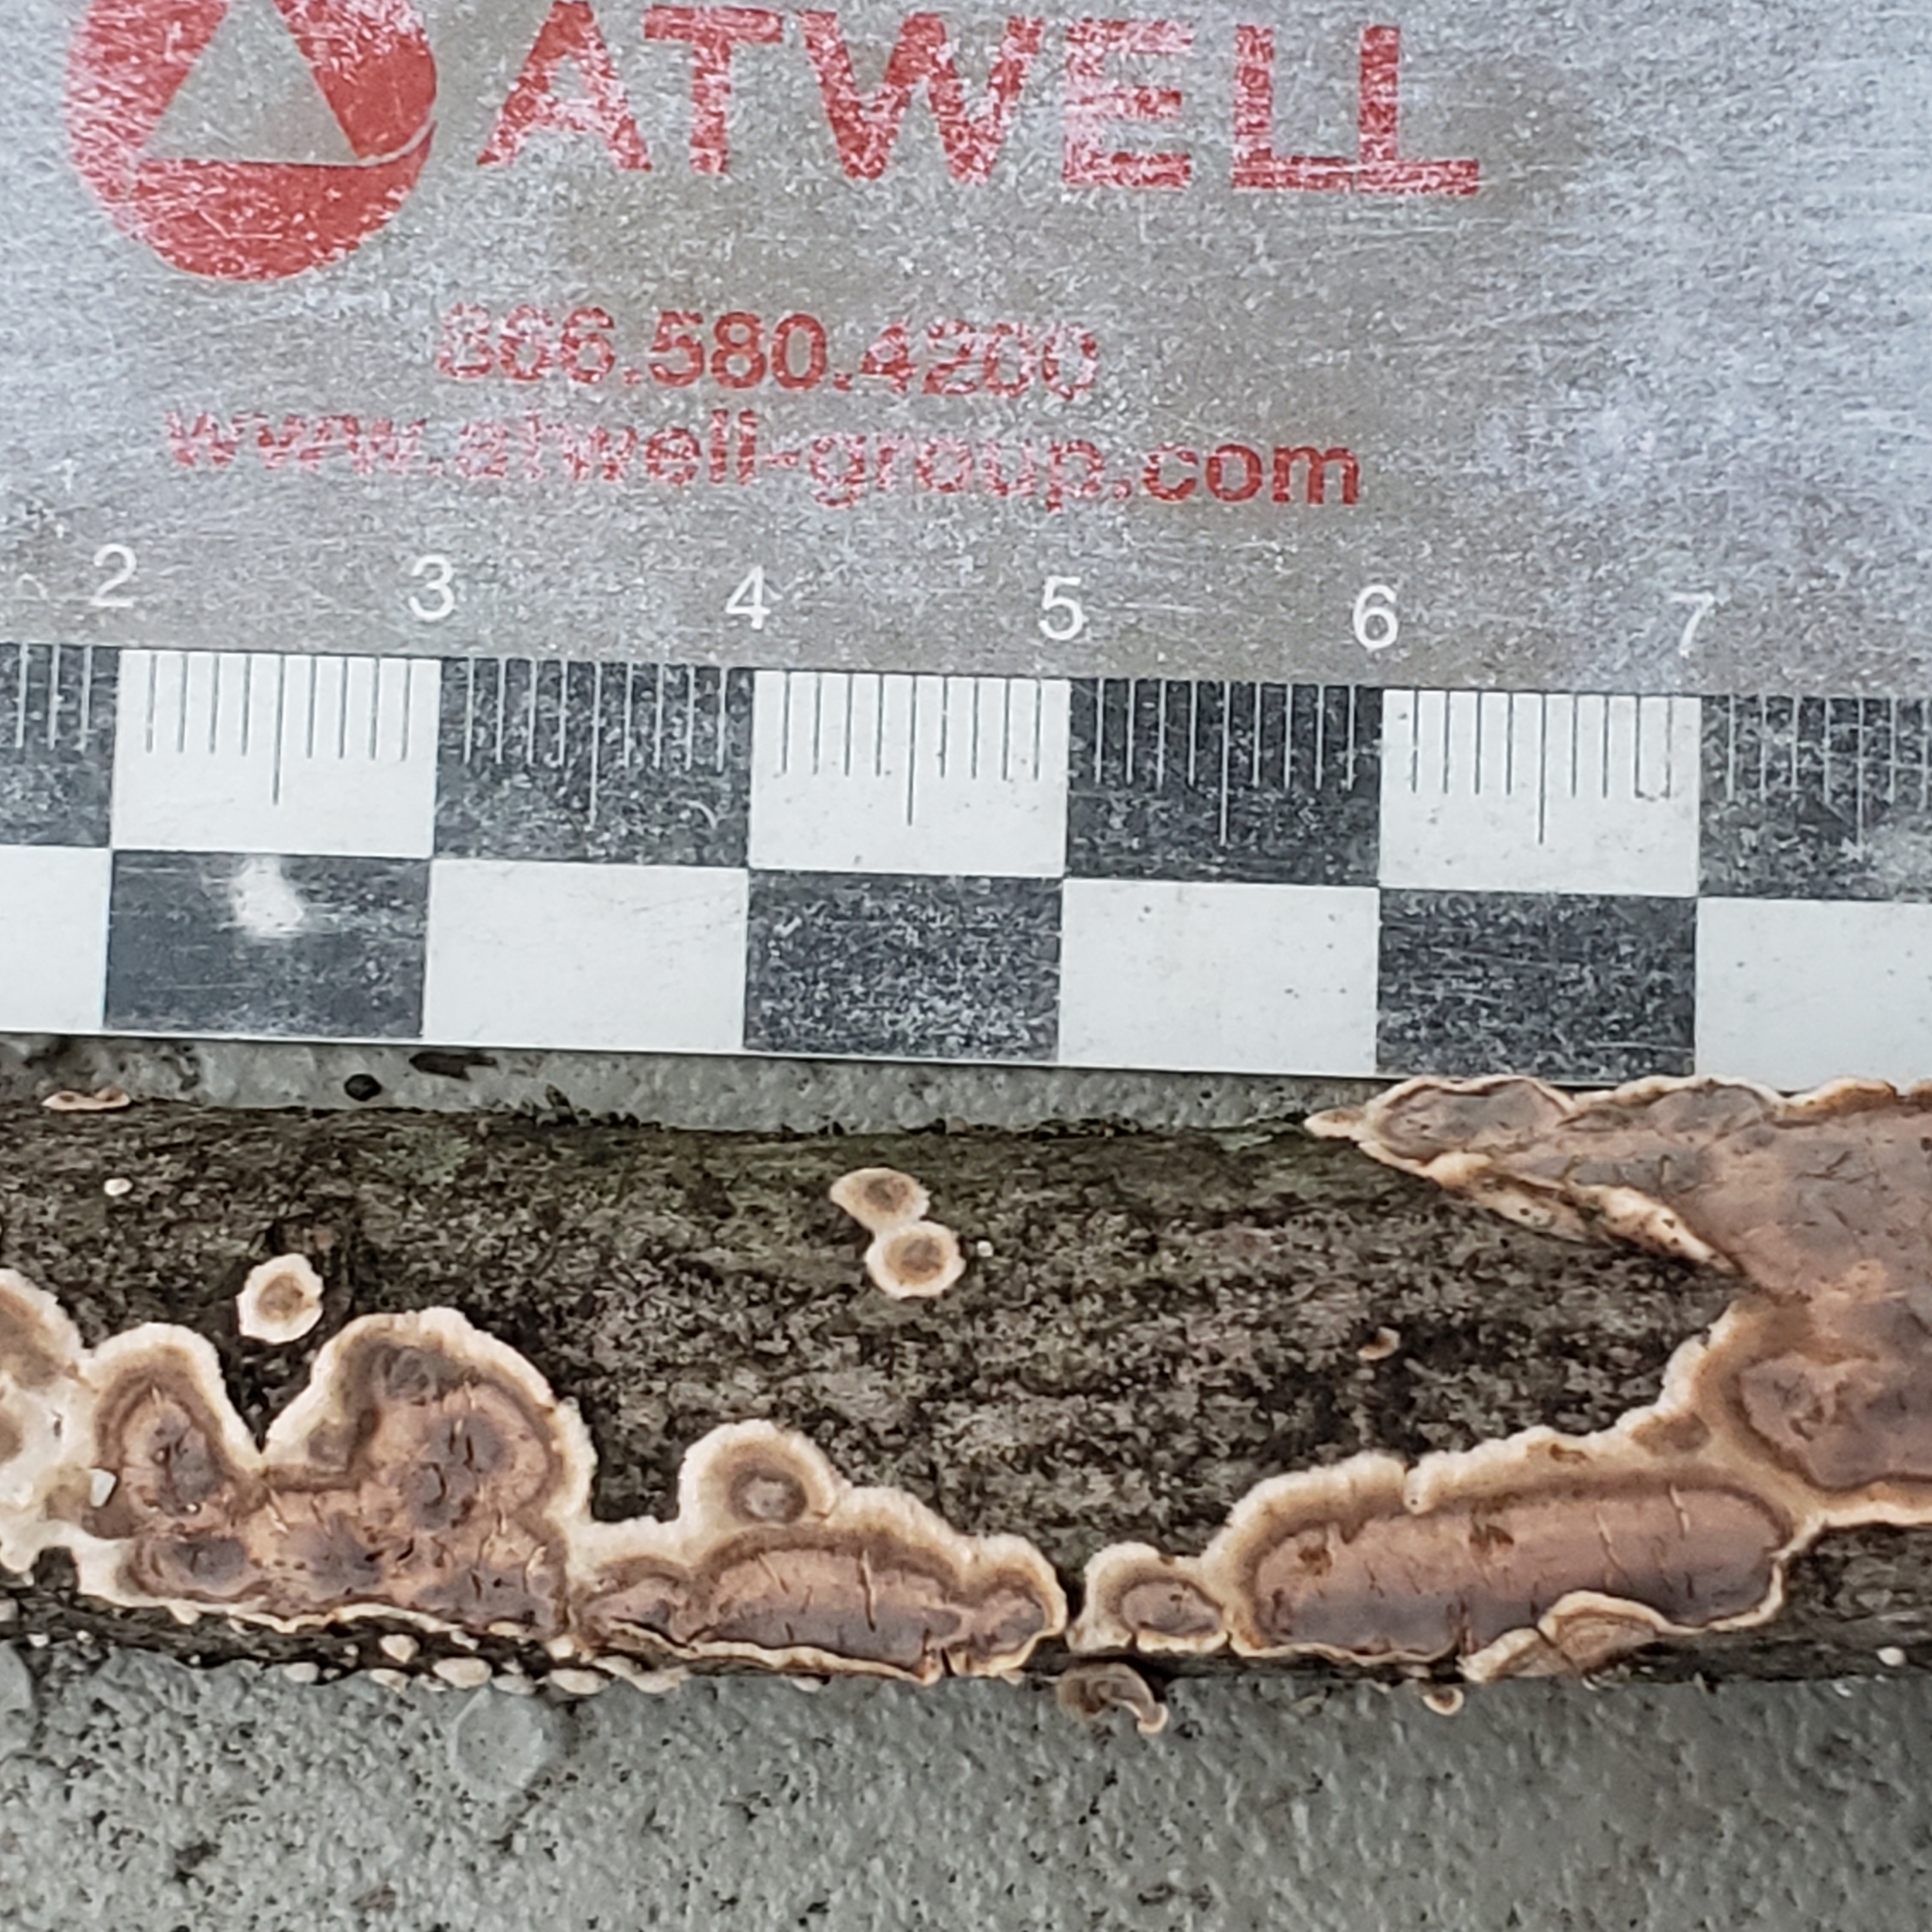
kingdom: Fungi
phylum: Basidiomycota
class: Agaricomycetes
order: Russulales
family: Peniophoraceae
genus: Peniophora
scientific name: Peniophora albobadia
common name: Giraffe spots
